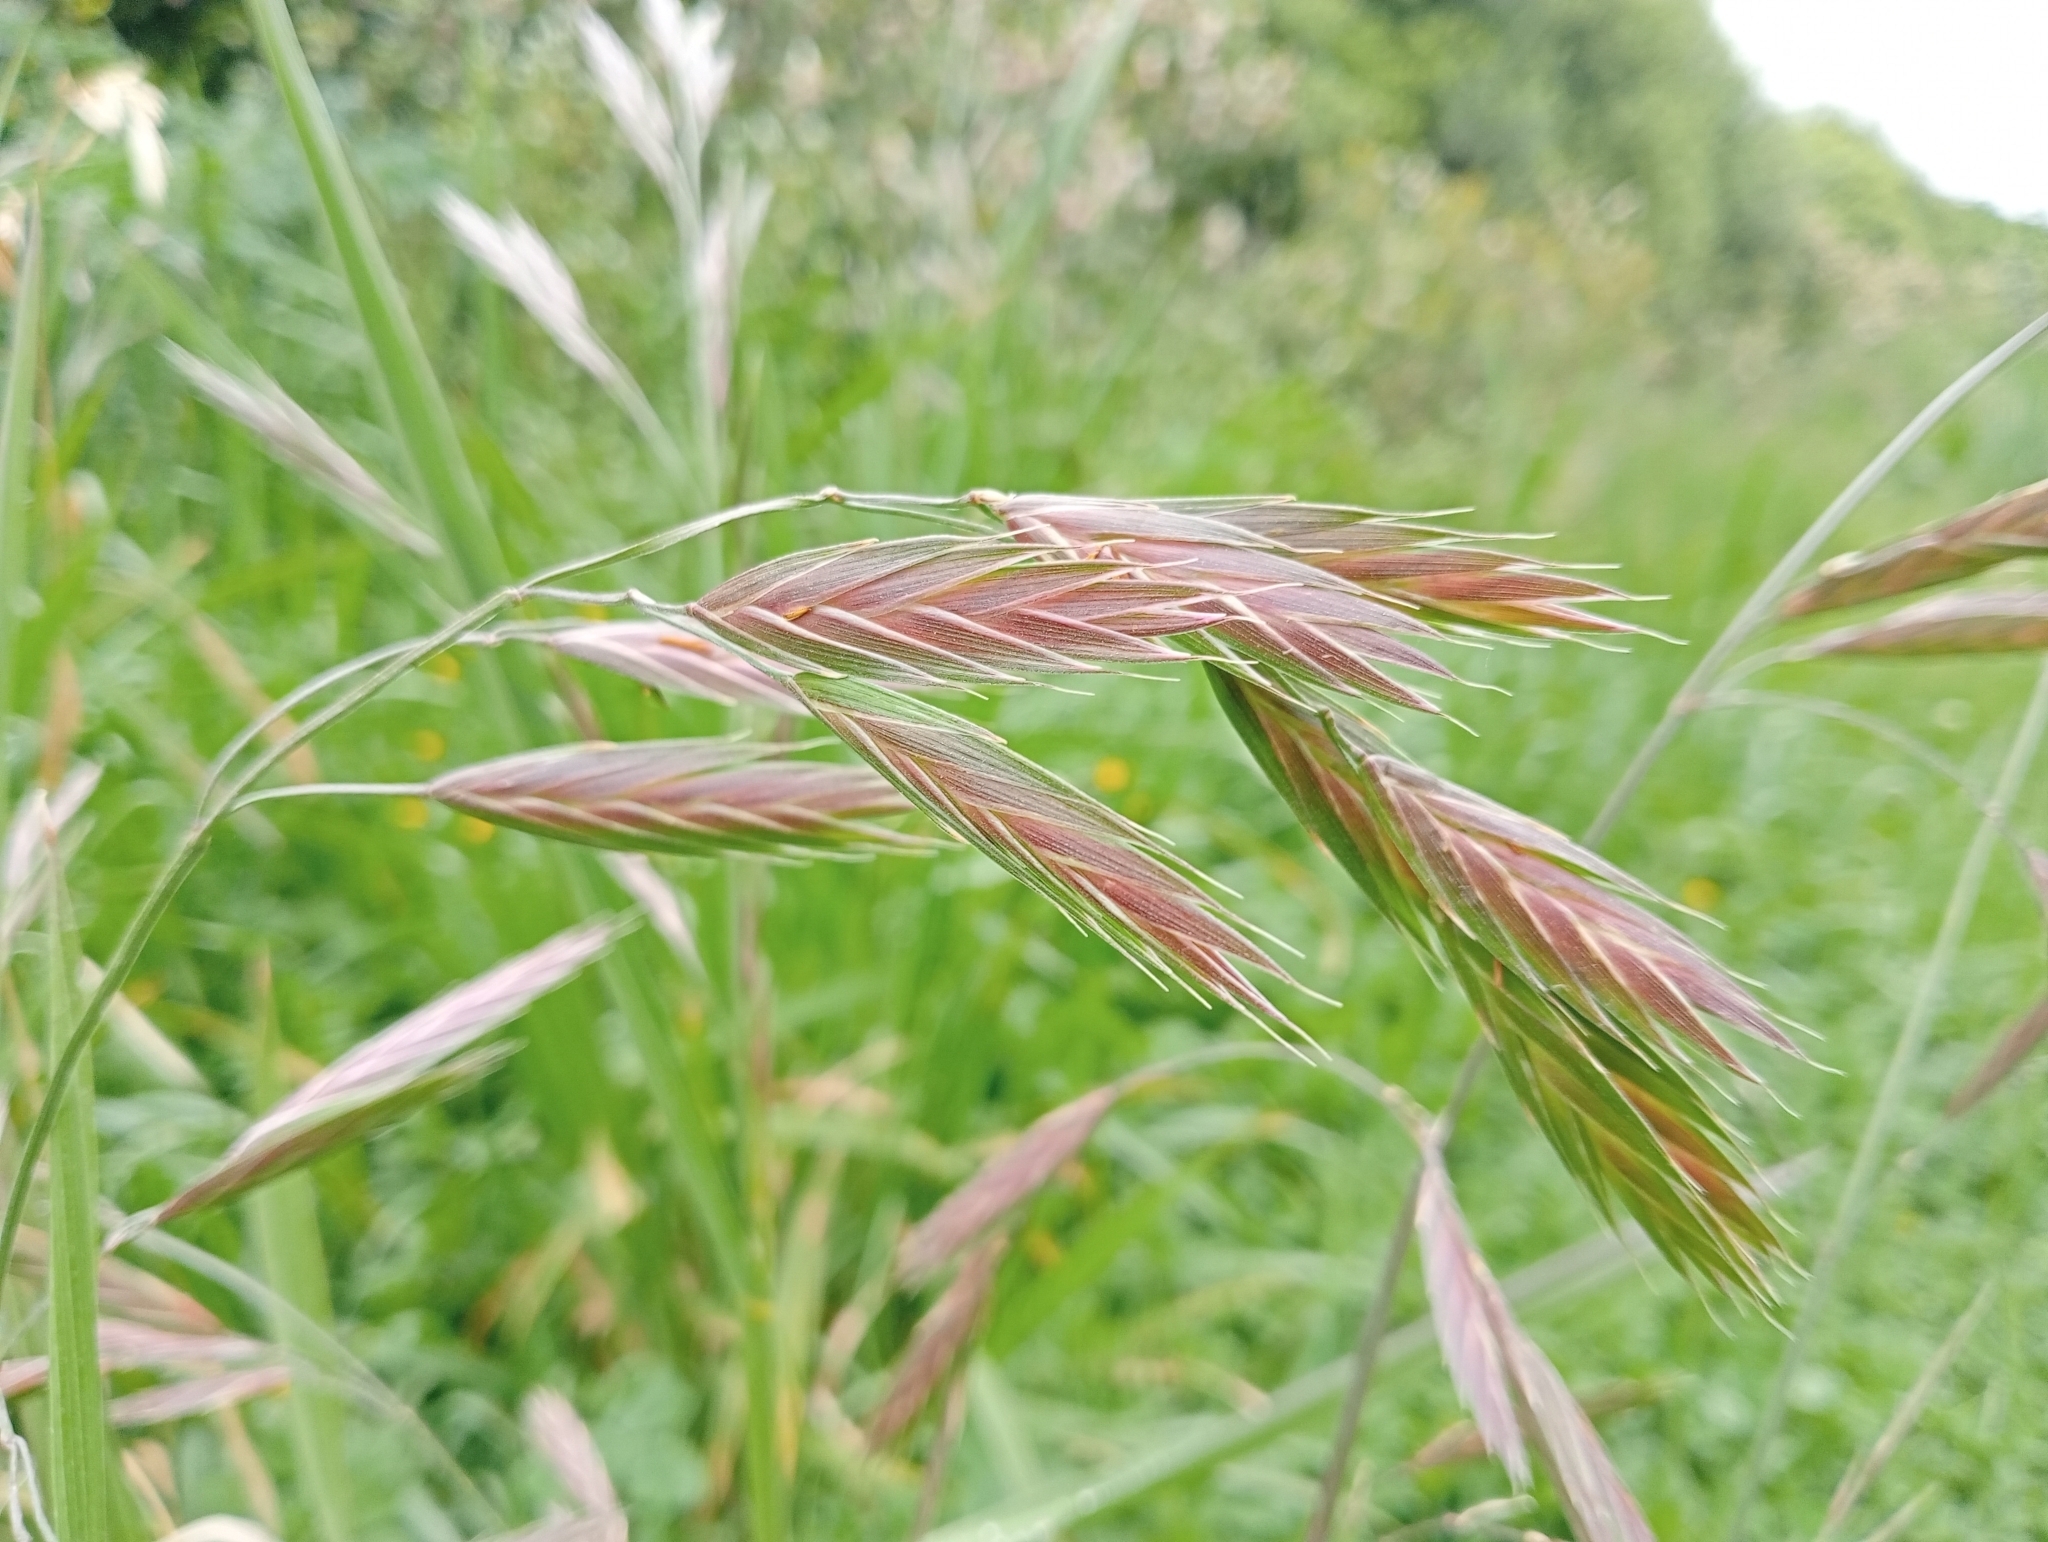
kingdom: Plantae
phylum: Tracheophyta
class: Liliopsida
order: Poales
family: Poaceae
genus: Bromus
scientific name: Bromus catharticus
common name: Rescuegrass
